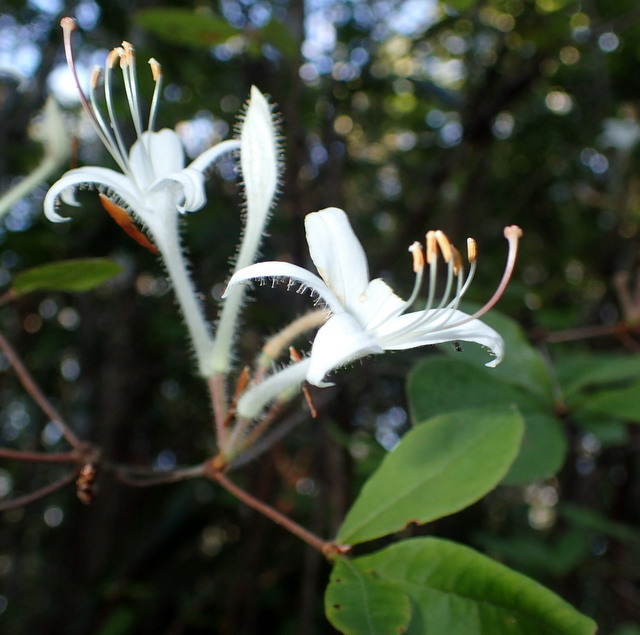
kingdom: Plantae
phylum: Tracheophyta
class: Magnoliopsida
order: Ericales
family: Ericaceae
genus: Rhododendron
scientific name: Rhododendron serrulatum
